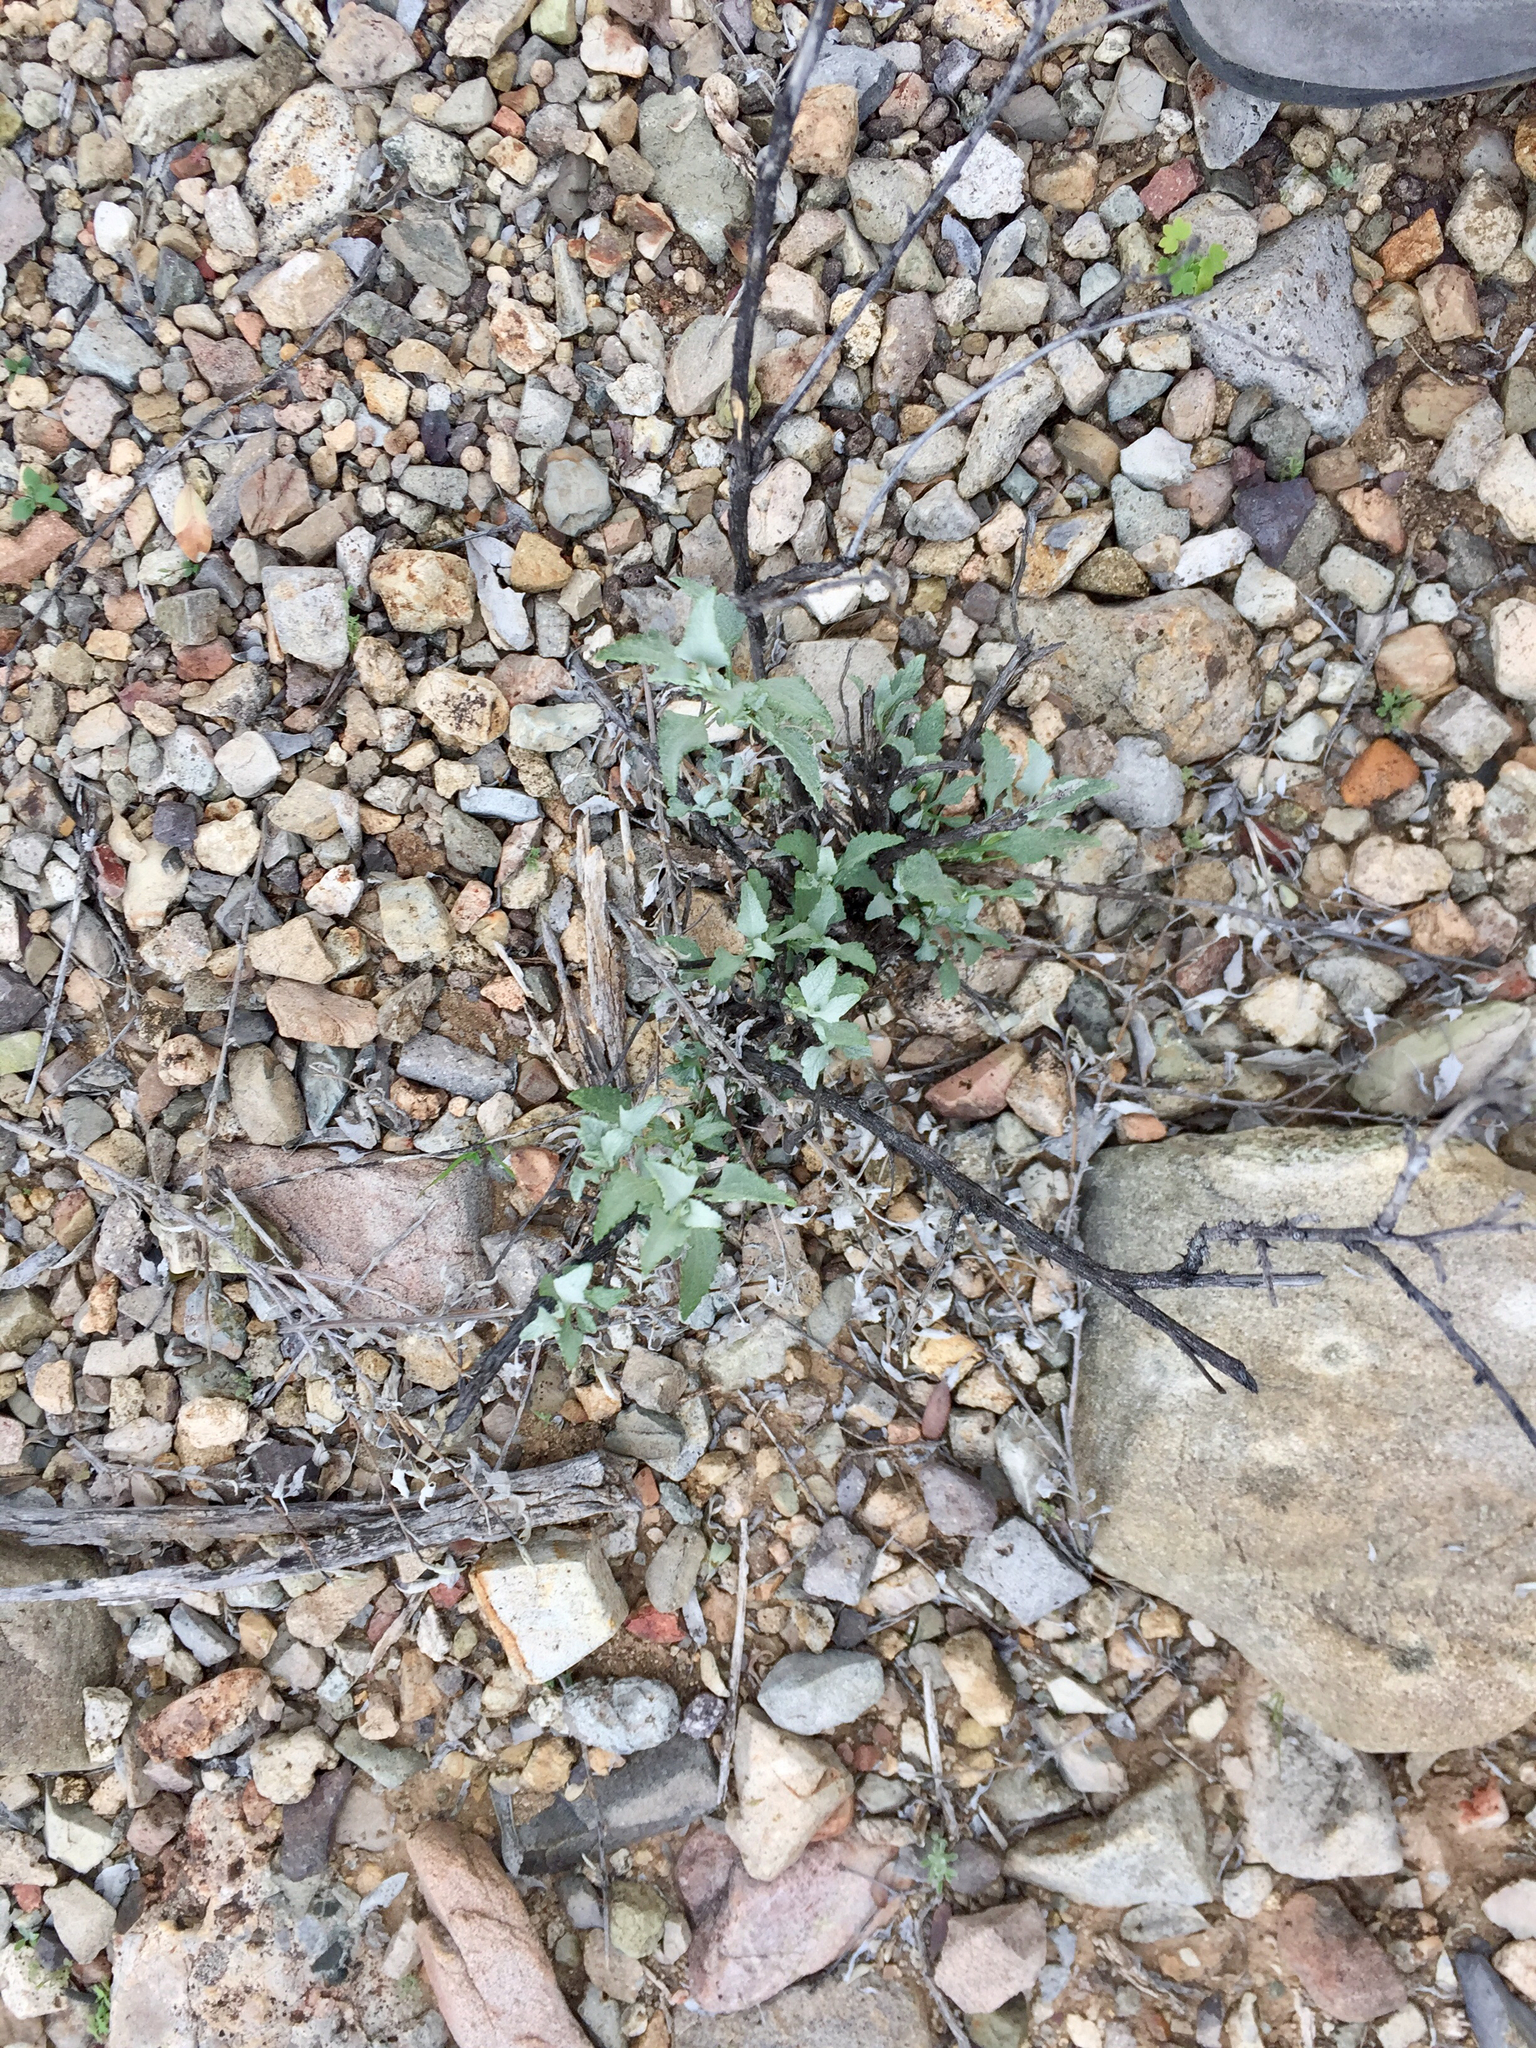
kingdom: Plantae
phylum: Tracheophyta
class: Magnoliopsida
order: Asterales
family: Asteraceae
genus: Ambrosia
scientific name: Ambrosia deltoidea
